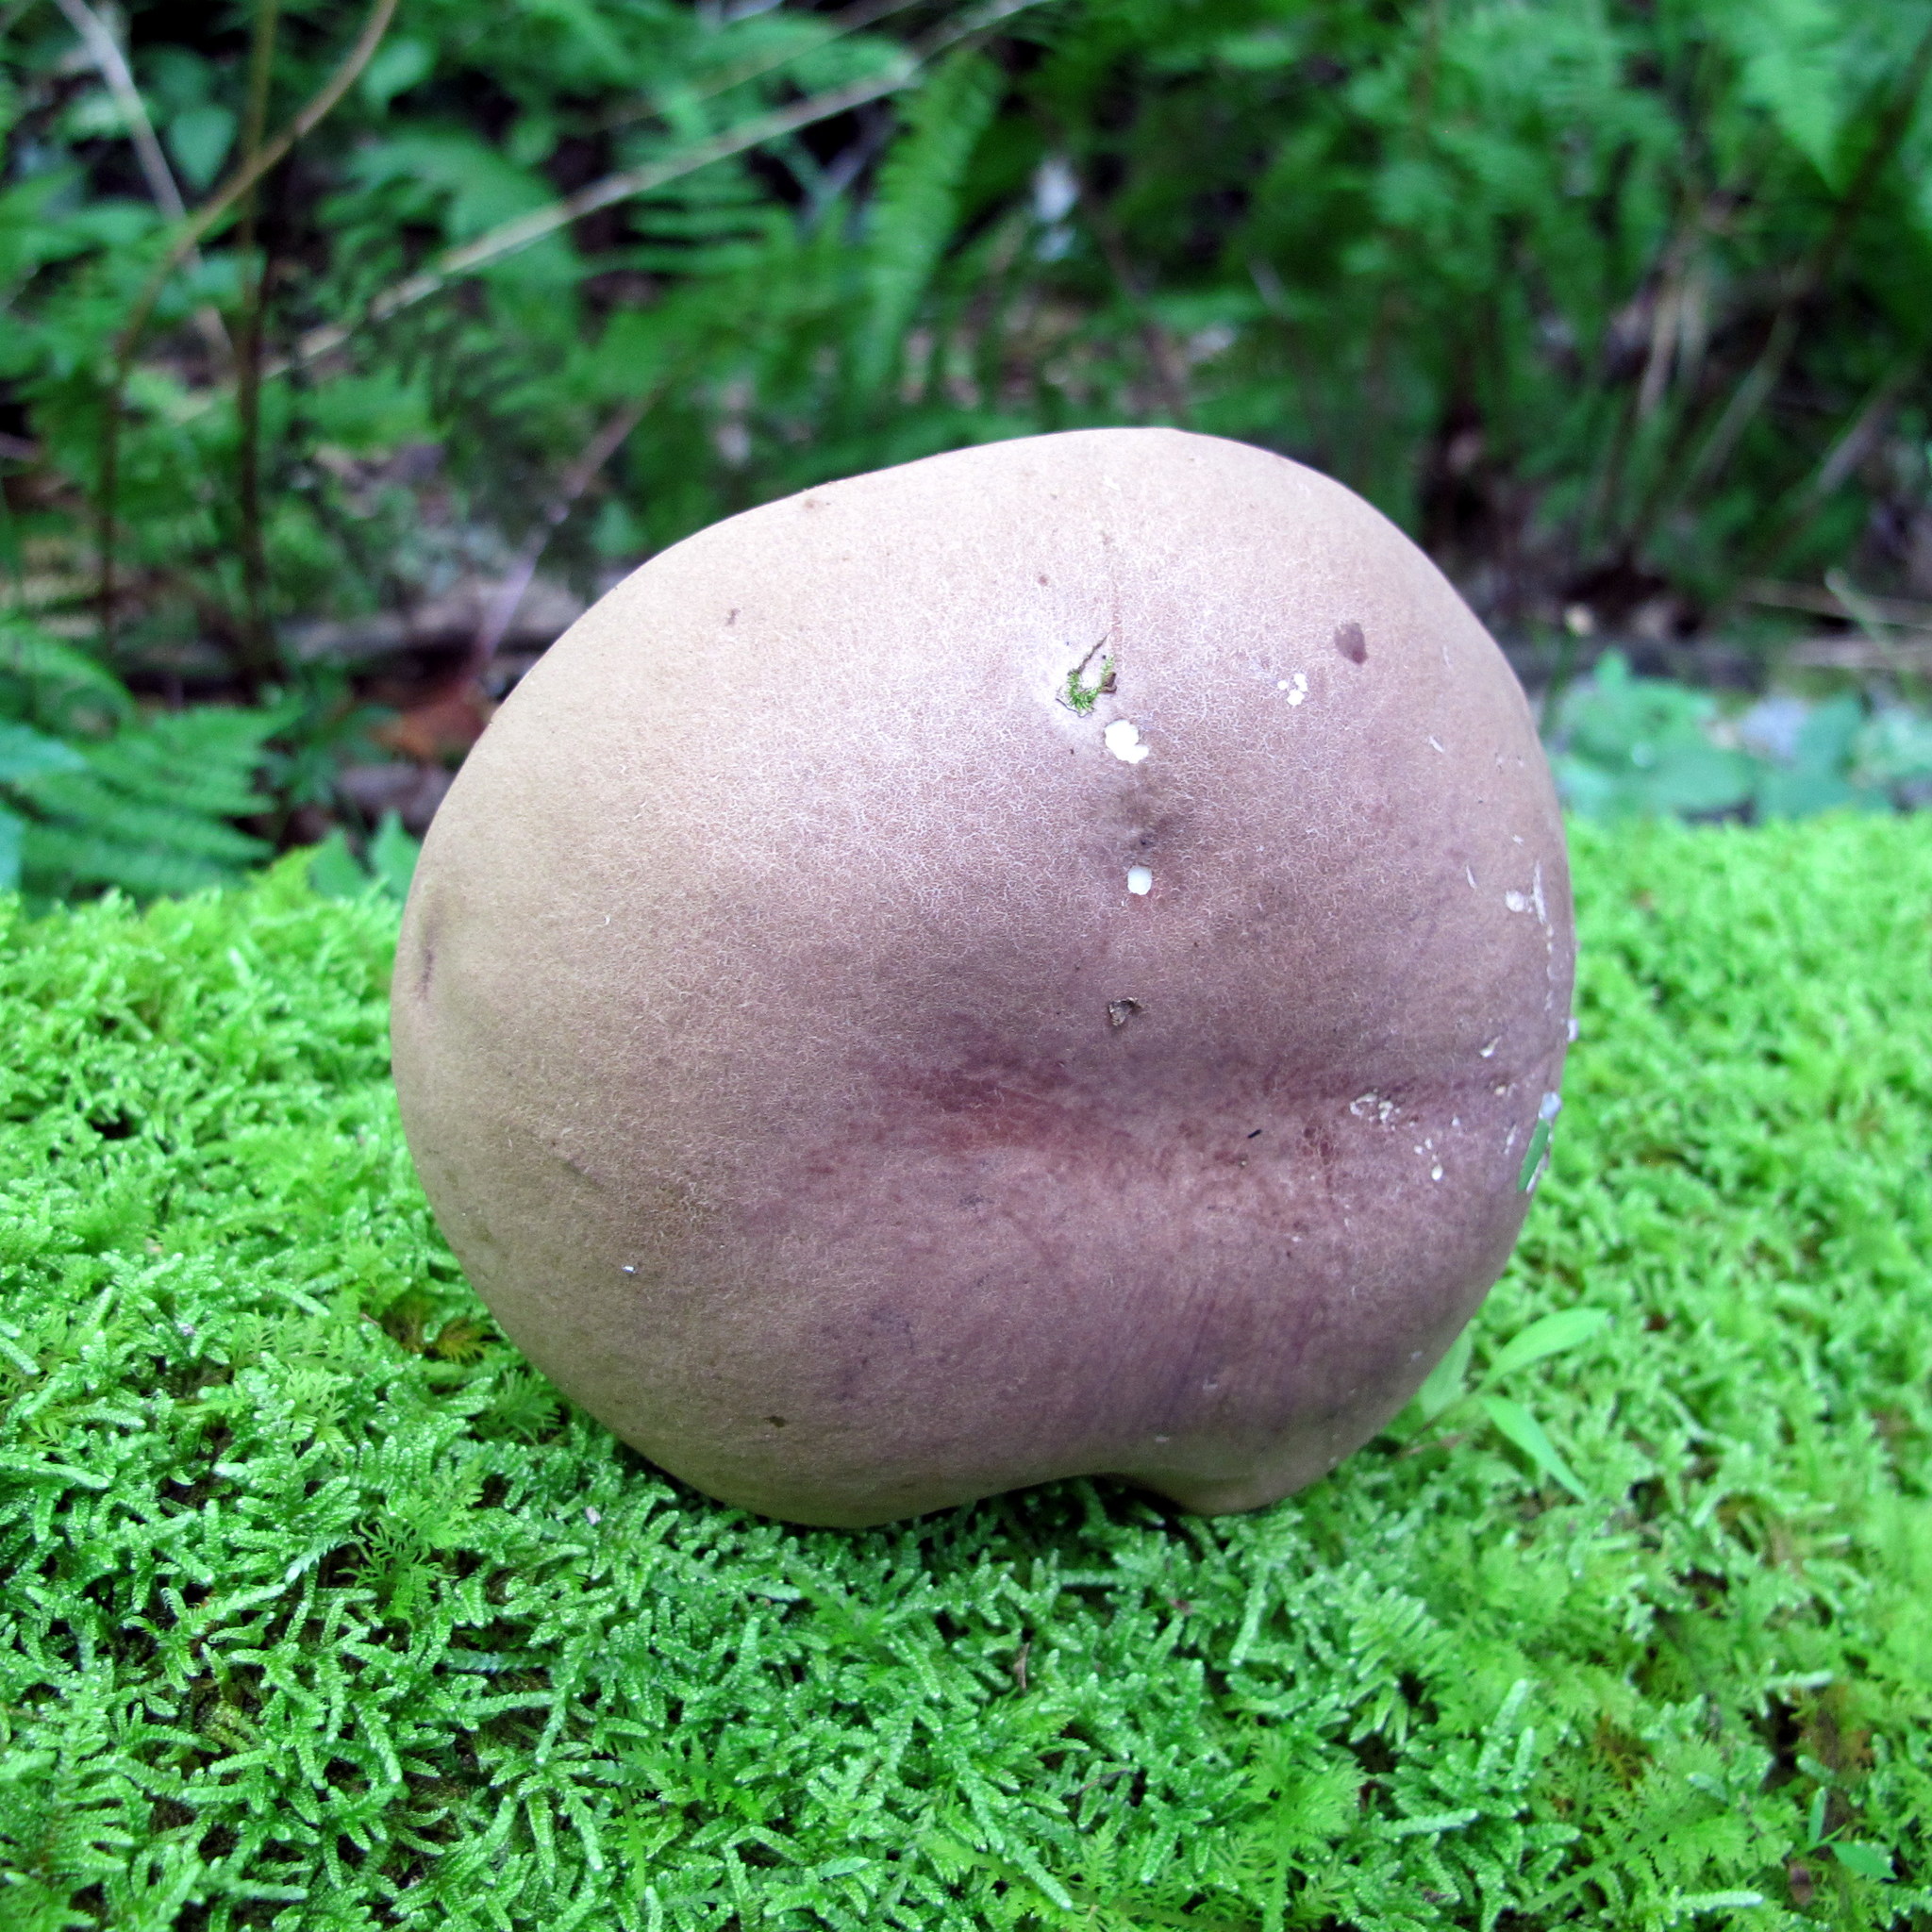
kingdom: Fungi
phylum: Basidiomycota
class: Agaricomycetes
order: Boletales
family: Boletaceae
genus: Austroboletus
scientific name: Austroboletus gracilis
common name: Graceful bolete
